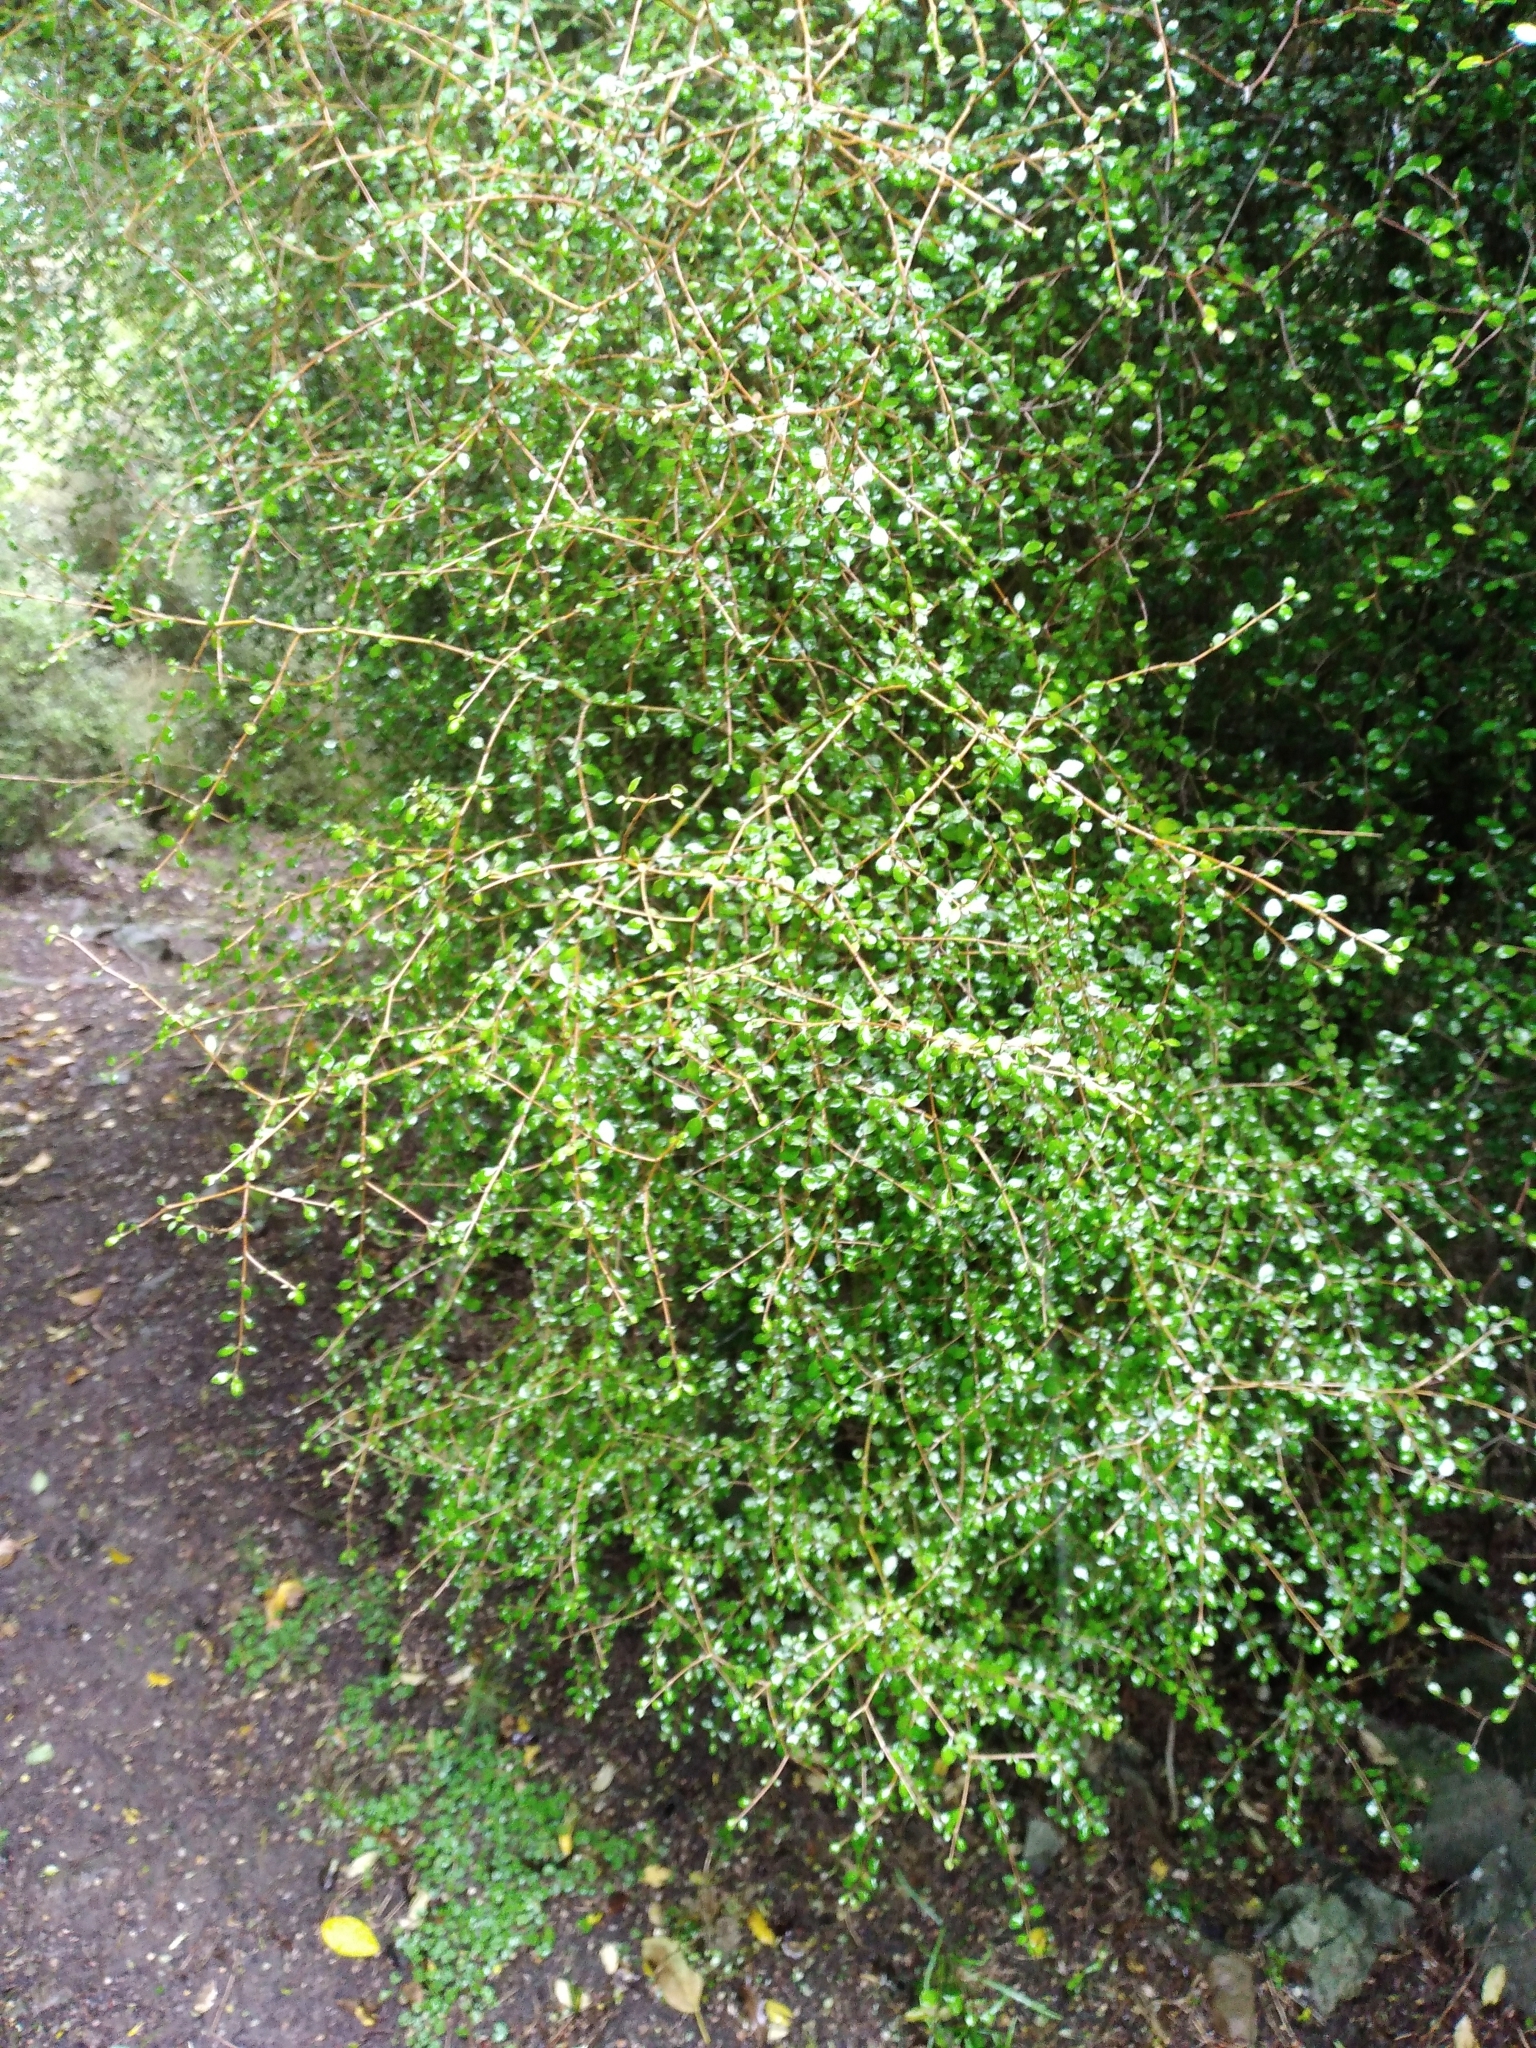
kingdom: Plantae
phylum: Tracheophyta
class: Magnoliopsida
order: Gentianales
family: Rubiaceae
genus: Coprosma
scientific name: Coprosma virescens
